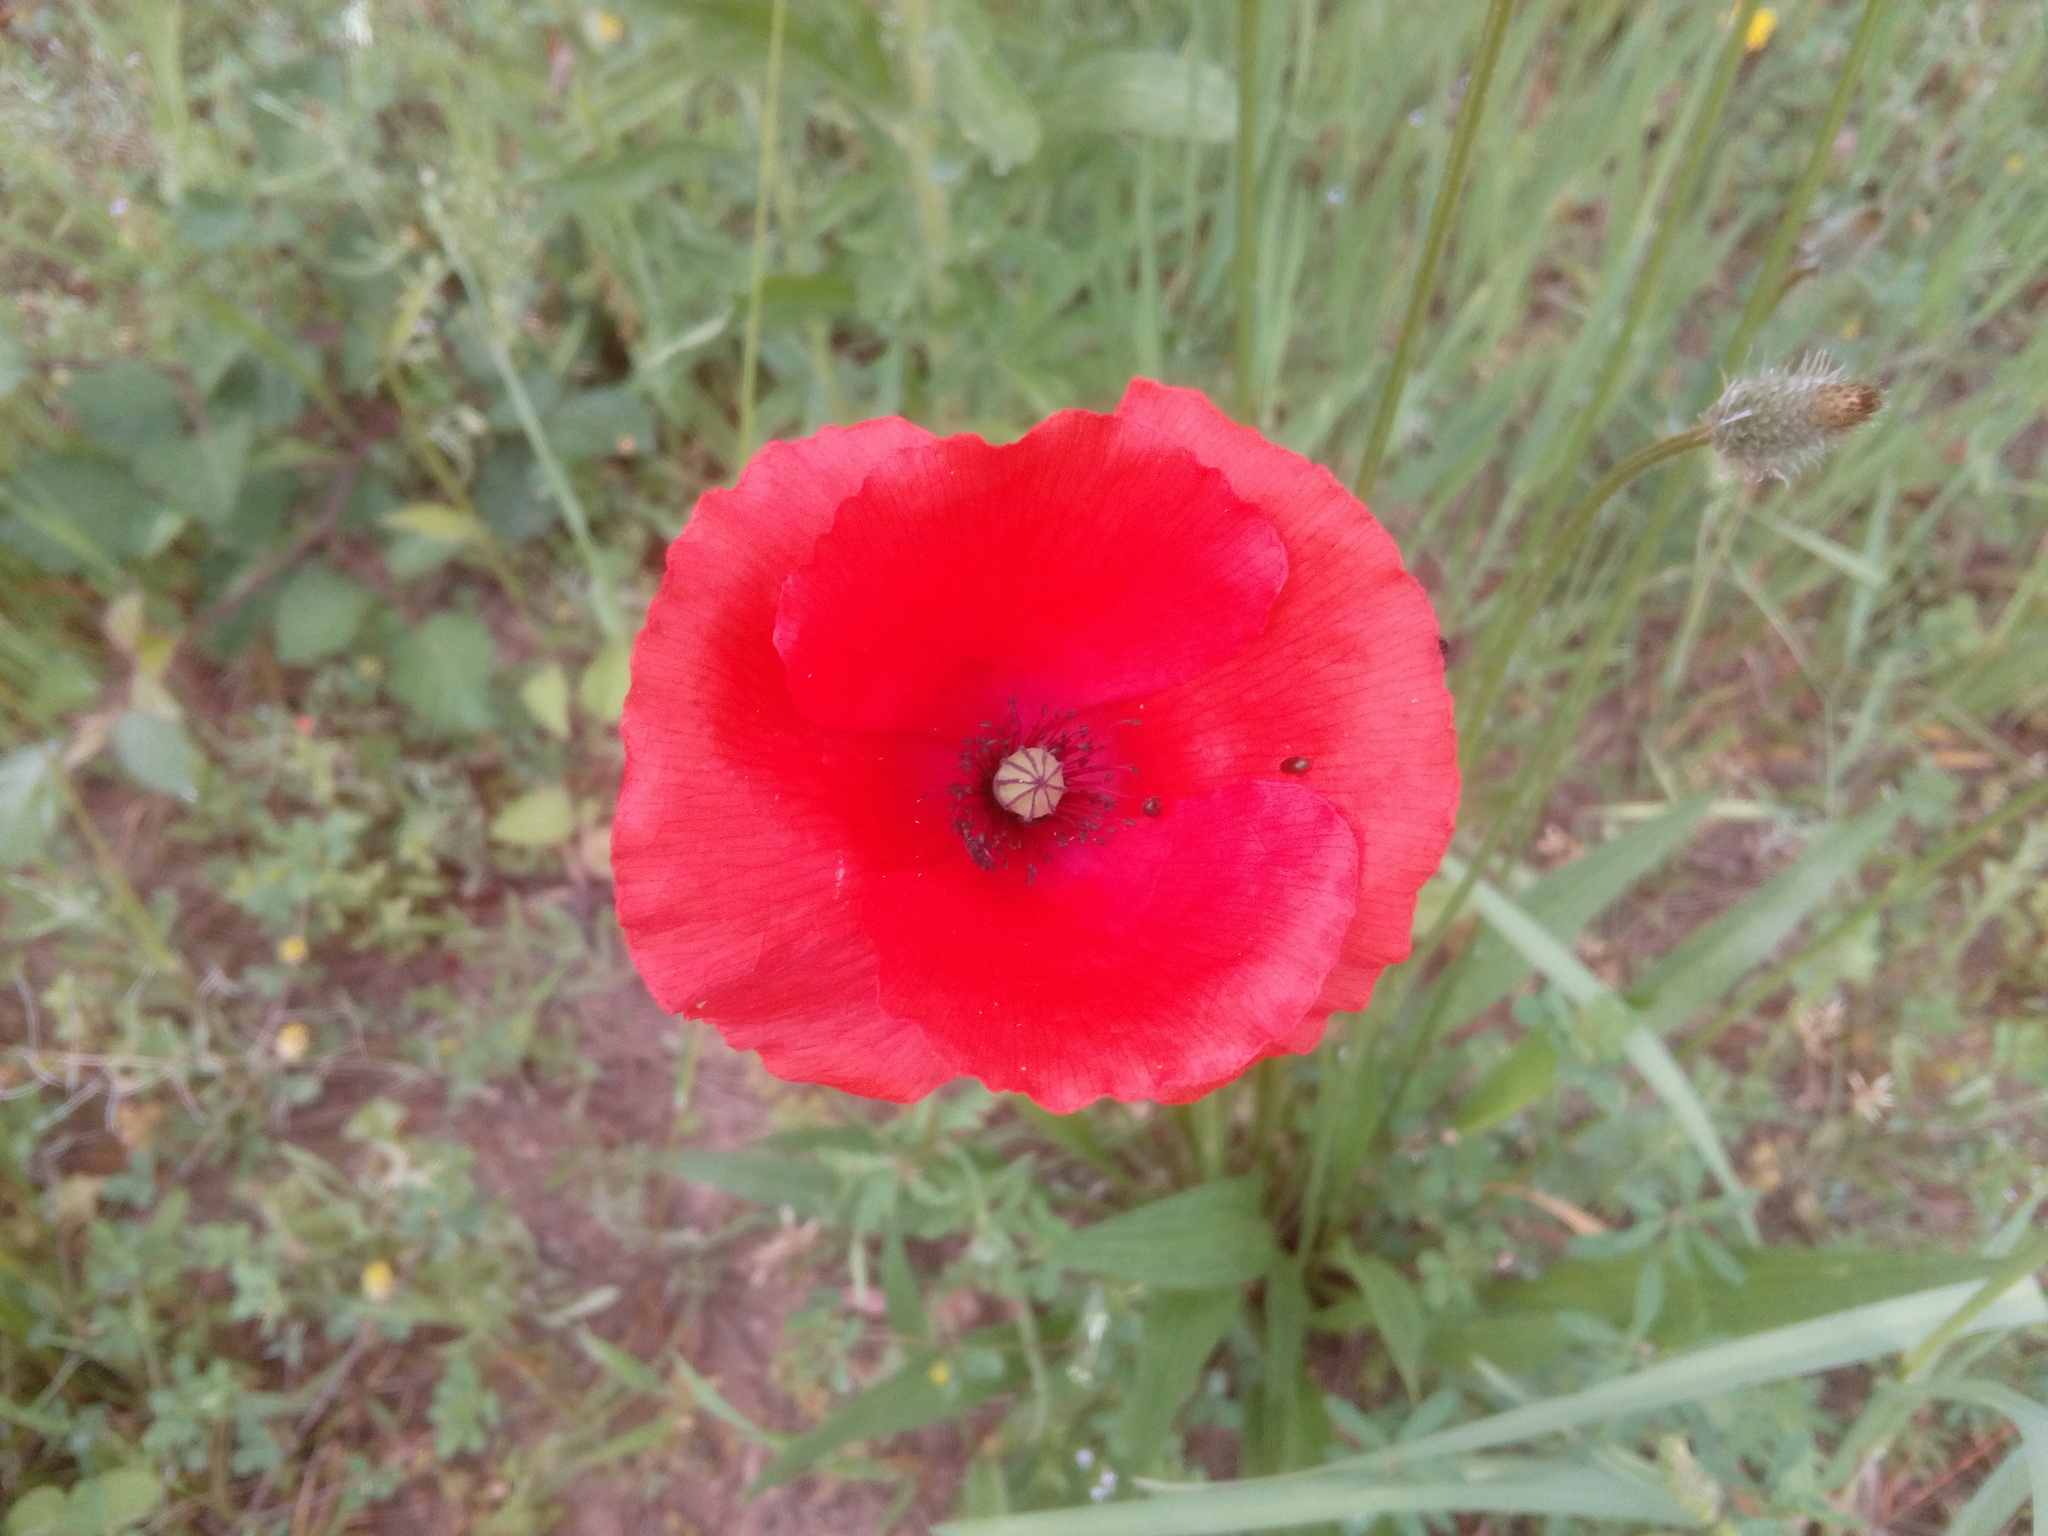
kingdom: Plantae
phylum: Tracheophyta
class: Magnoliopsida
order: Ranunculales
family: Papaveraceae
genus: Papaver
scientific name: Papaver rhoeas
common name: Corn poppy
